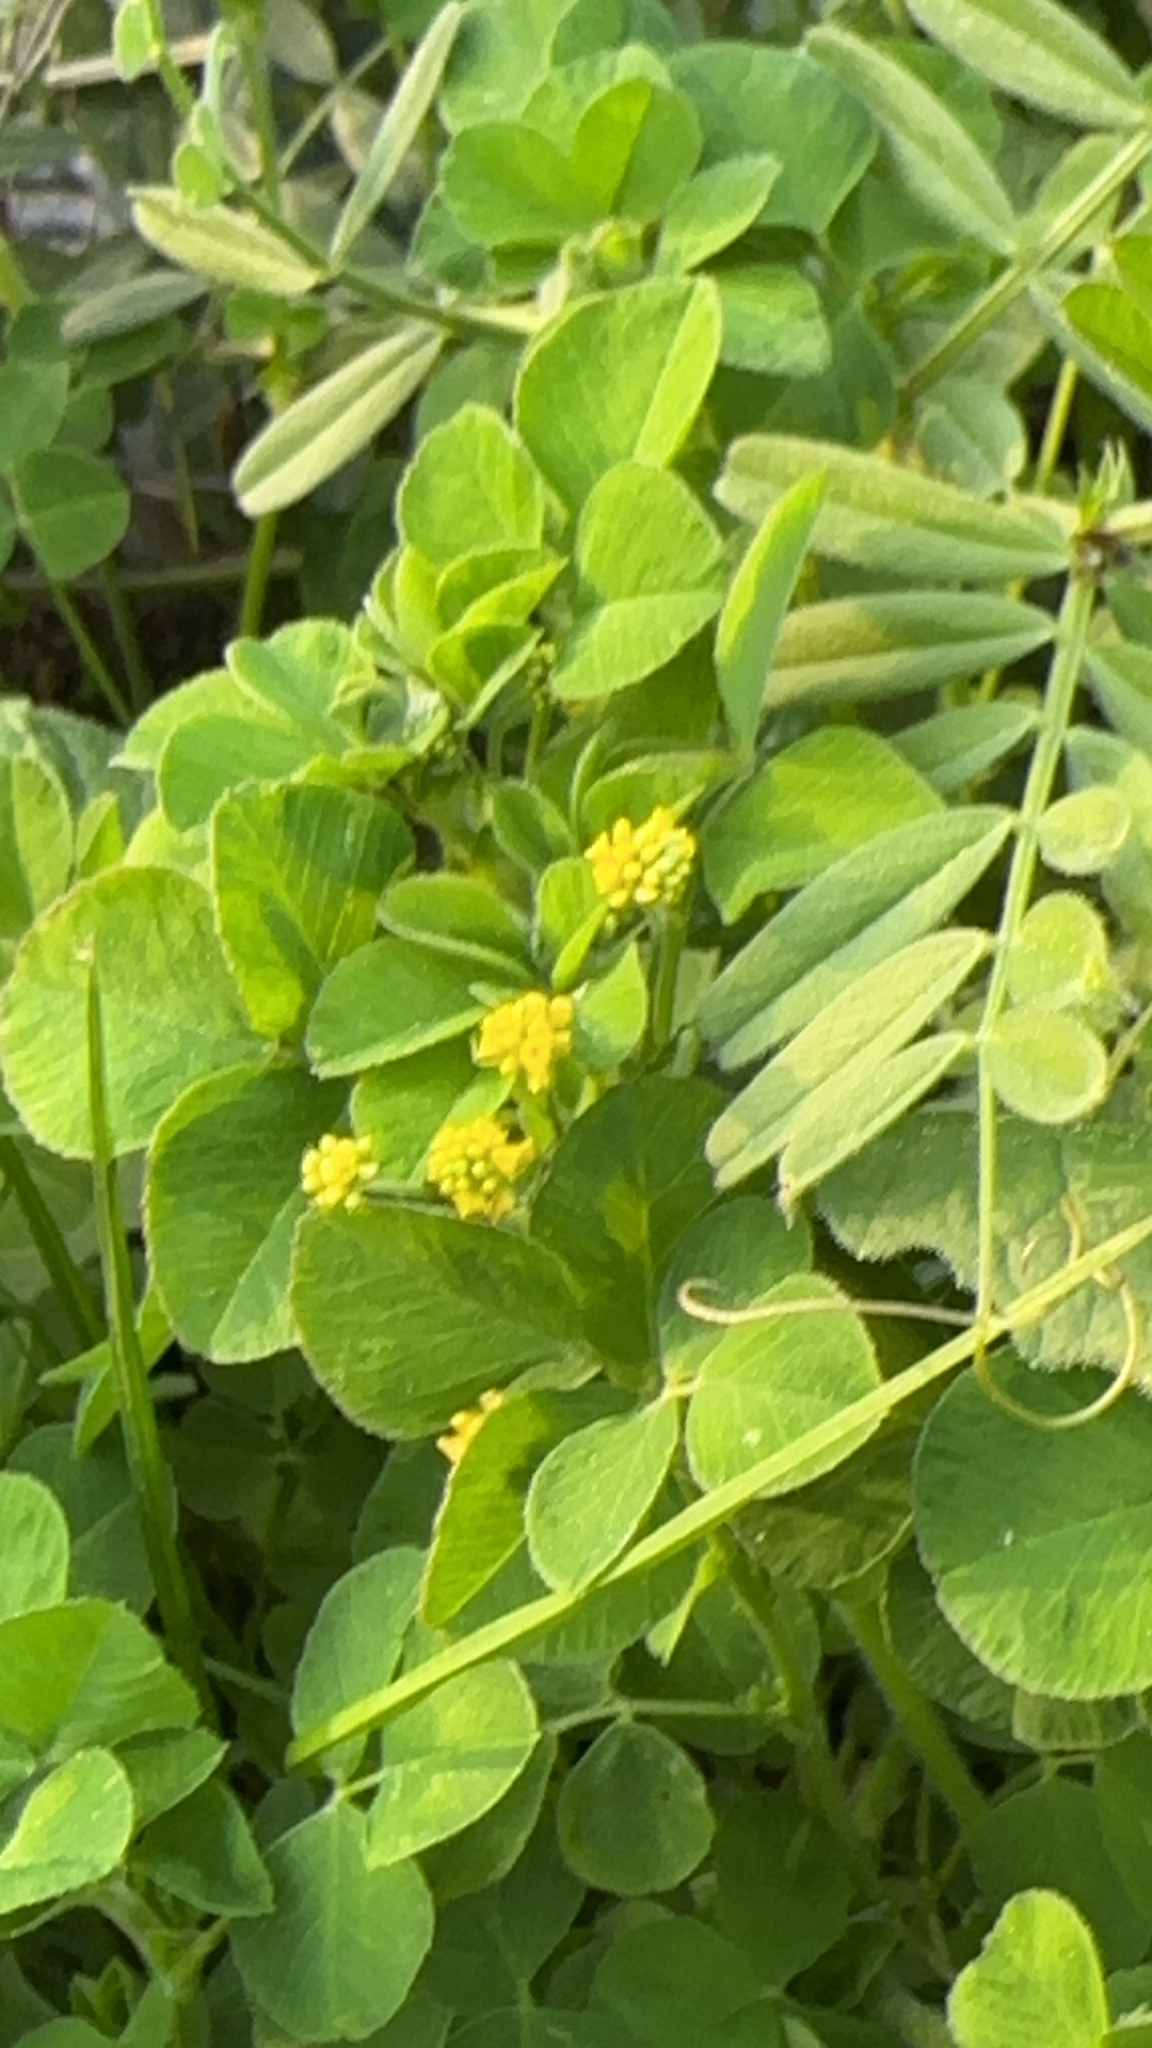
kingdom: Plantae
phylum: Tracheophyta
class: Magnoliopsida
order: Fabales
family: Fabaceae
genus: Medicago
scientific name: Medicago lupulina
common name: Black medick
